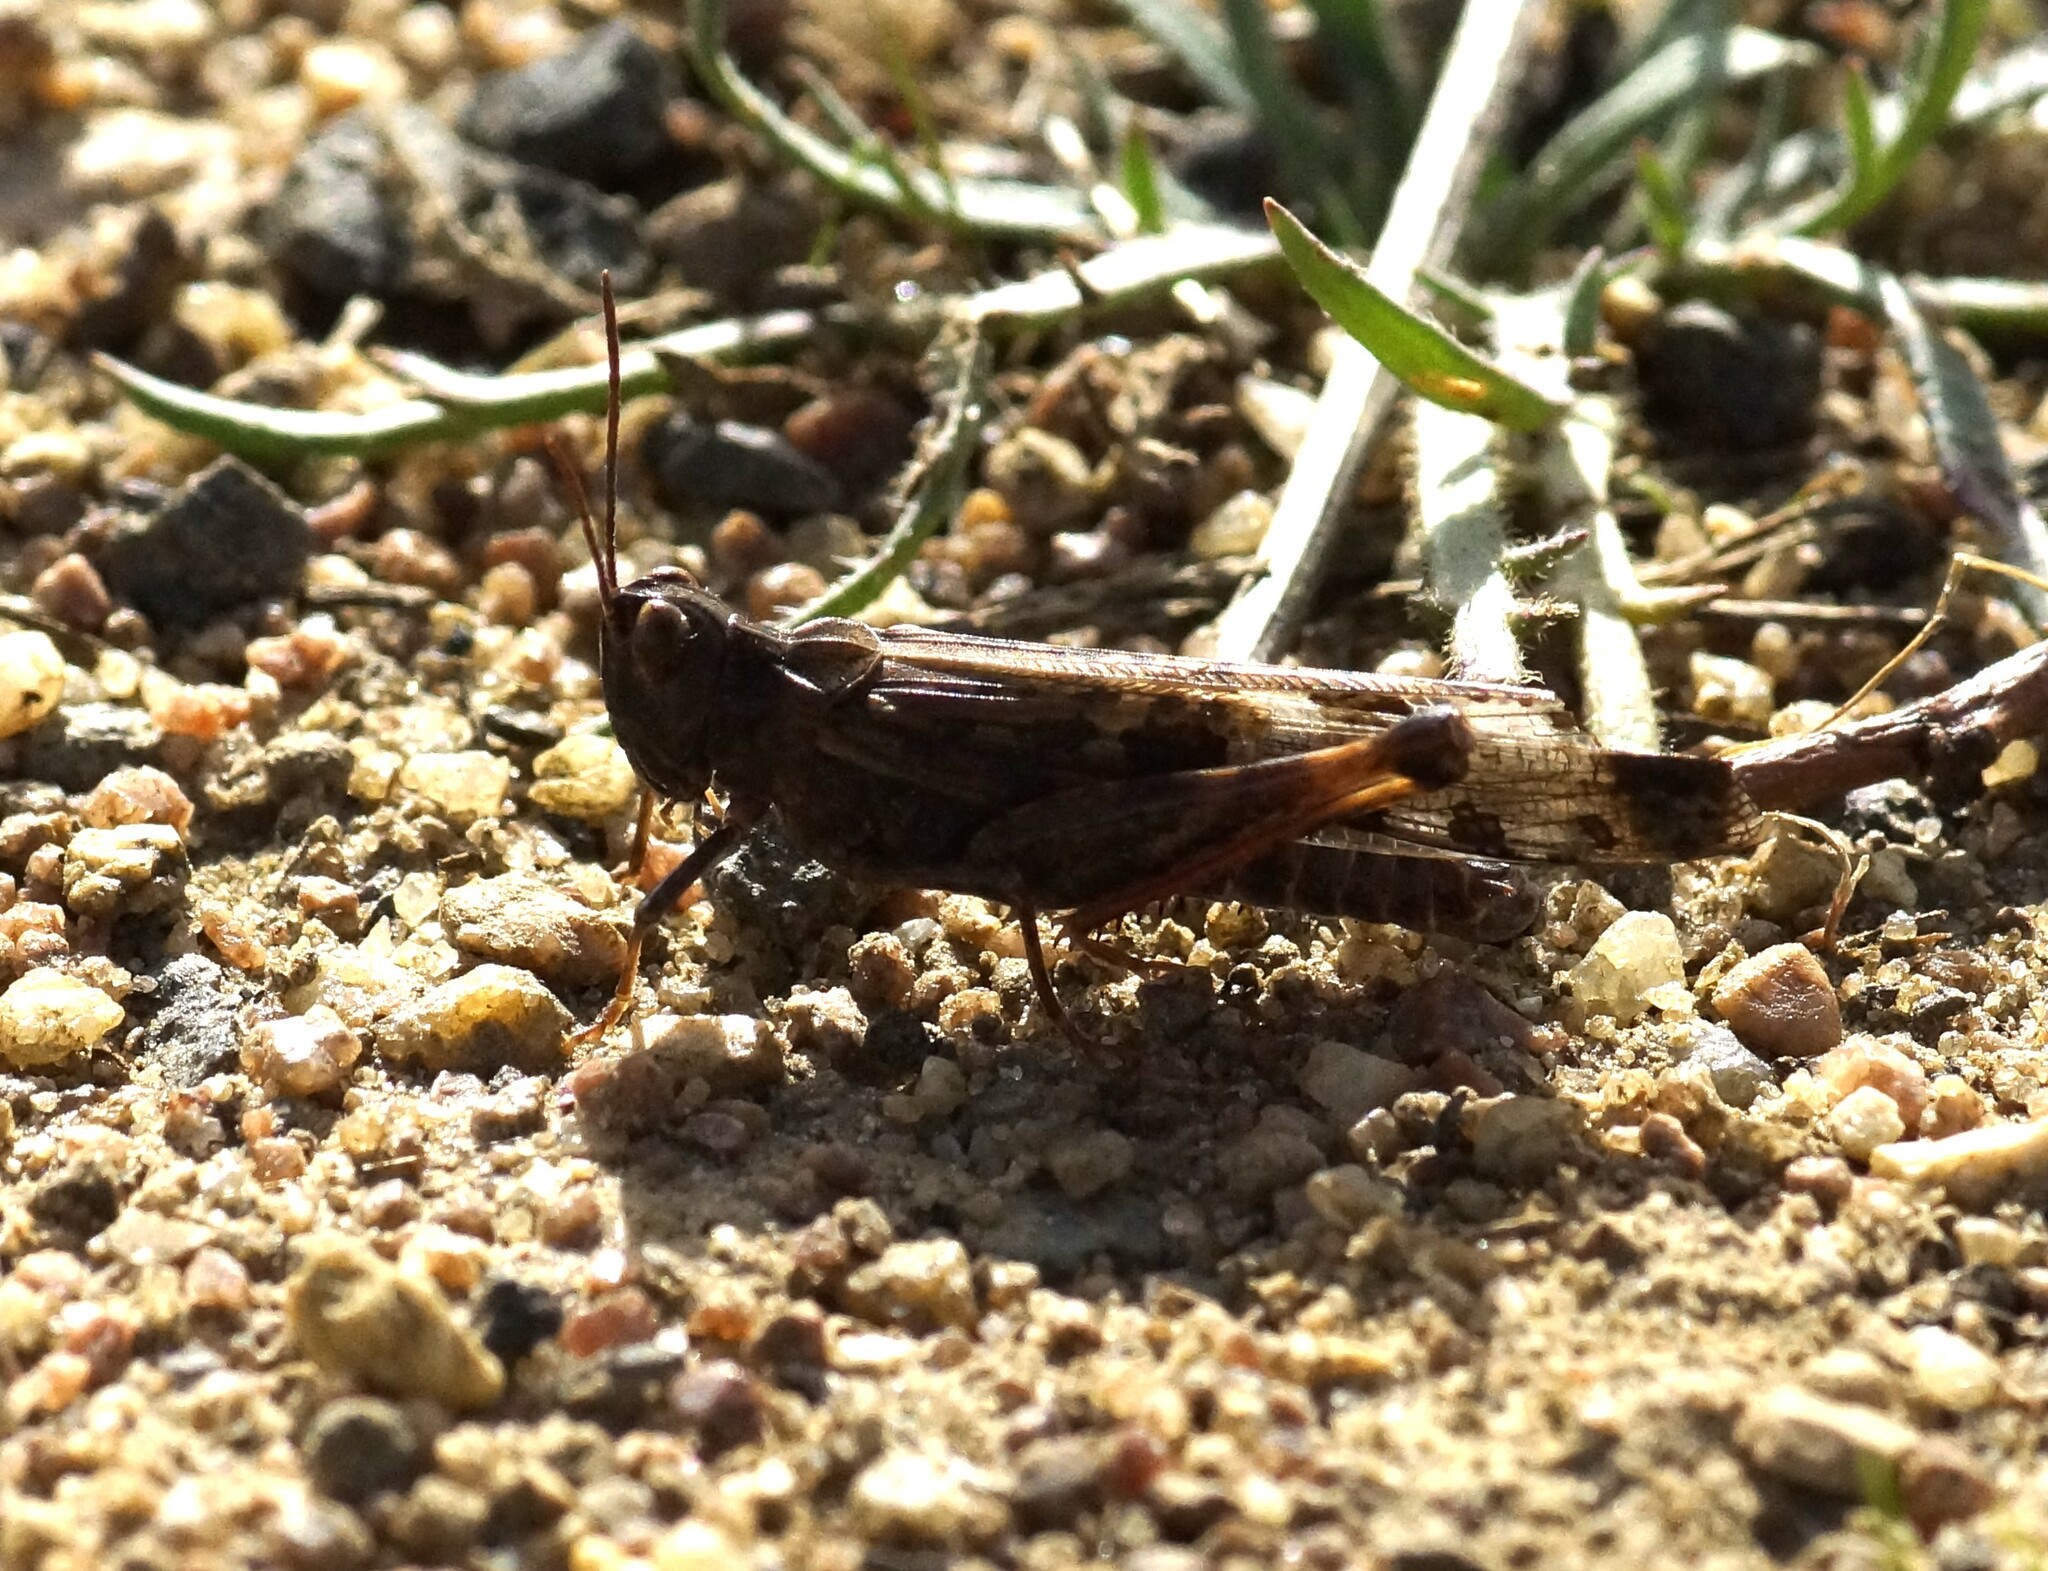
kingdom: Animalia
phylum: Arthropoda
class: Insecta
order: Orthoptera
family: Acrididae
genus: Chortoicetes
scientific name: Chortoicetes terminifera
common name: Australian plague locust
